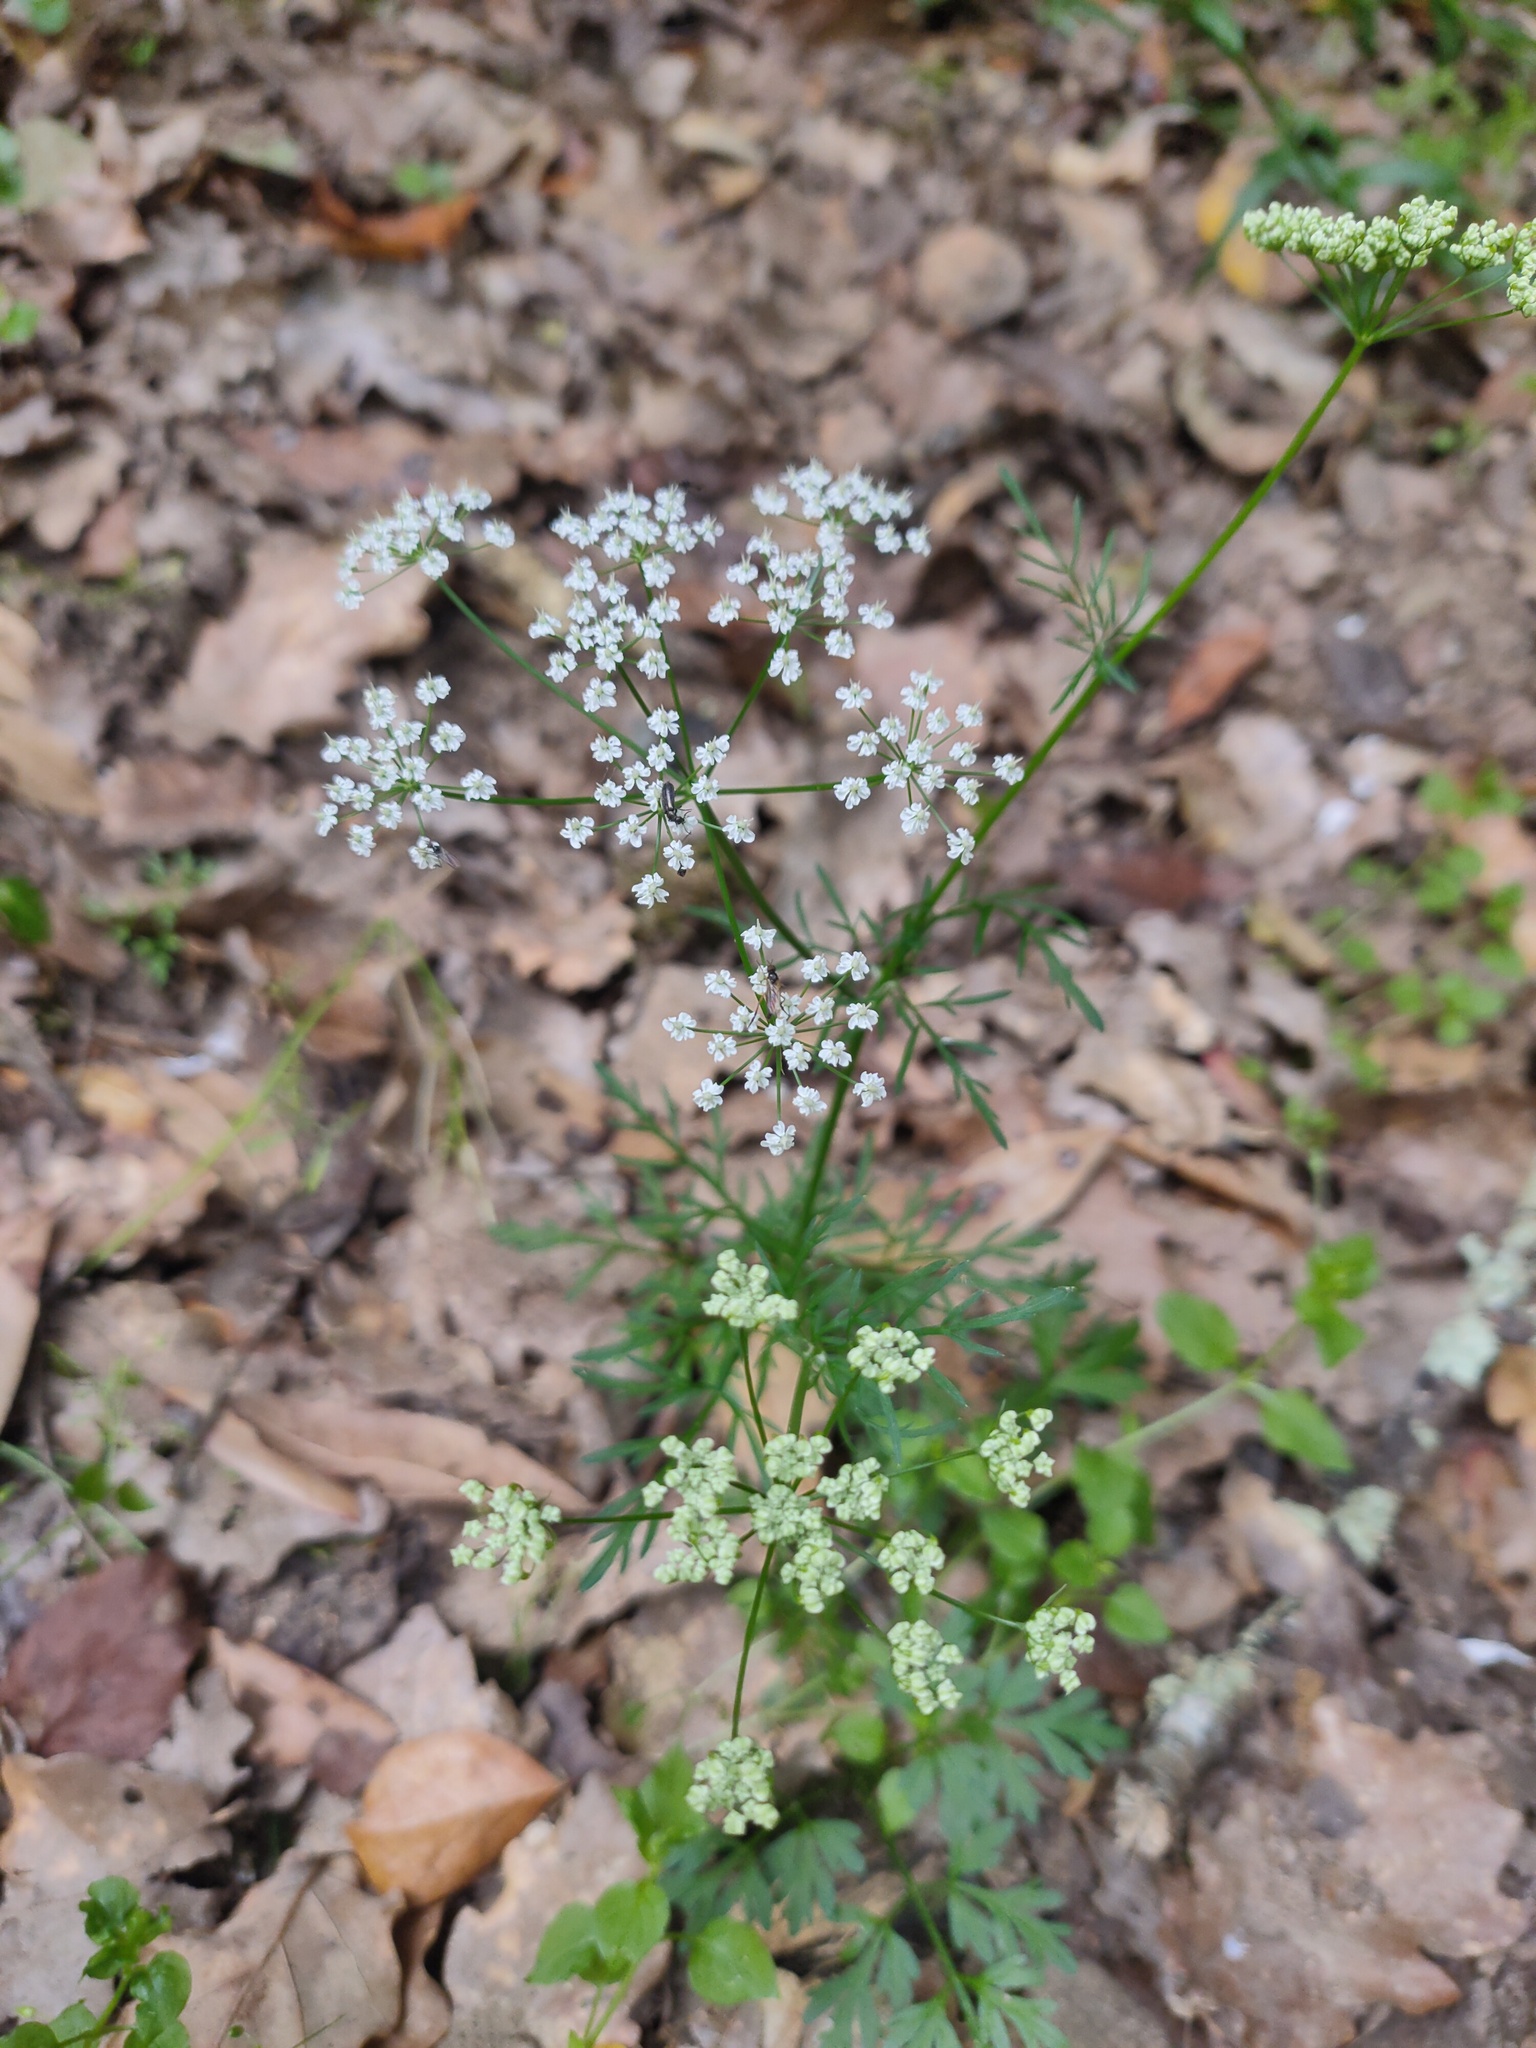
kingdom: Plantae
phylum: Tracheophyta
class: Magnoliopsida
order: Apiales
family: Apiaceae
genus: Conopodium
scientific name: Conopodium majus
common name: Pignut
